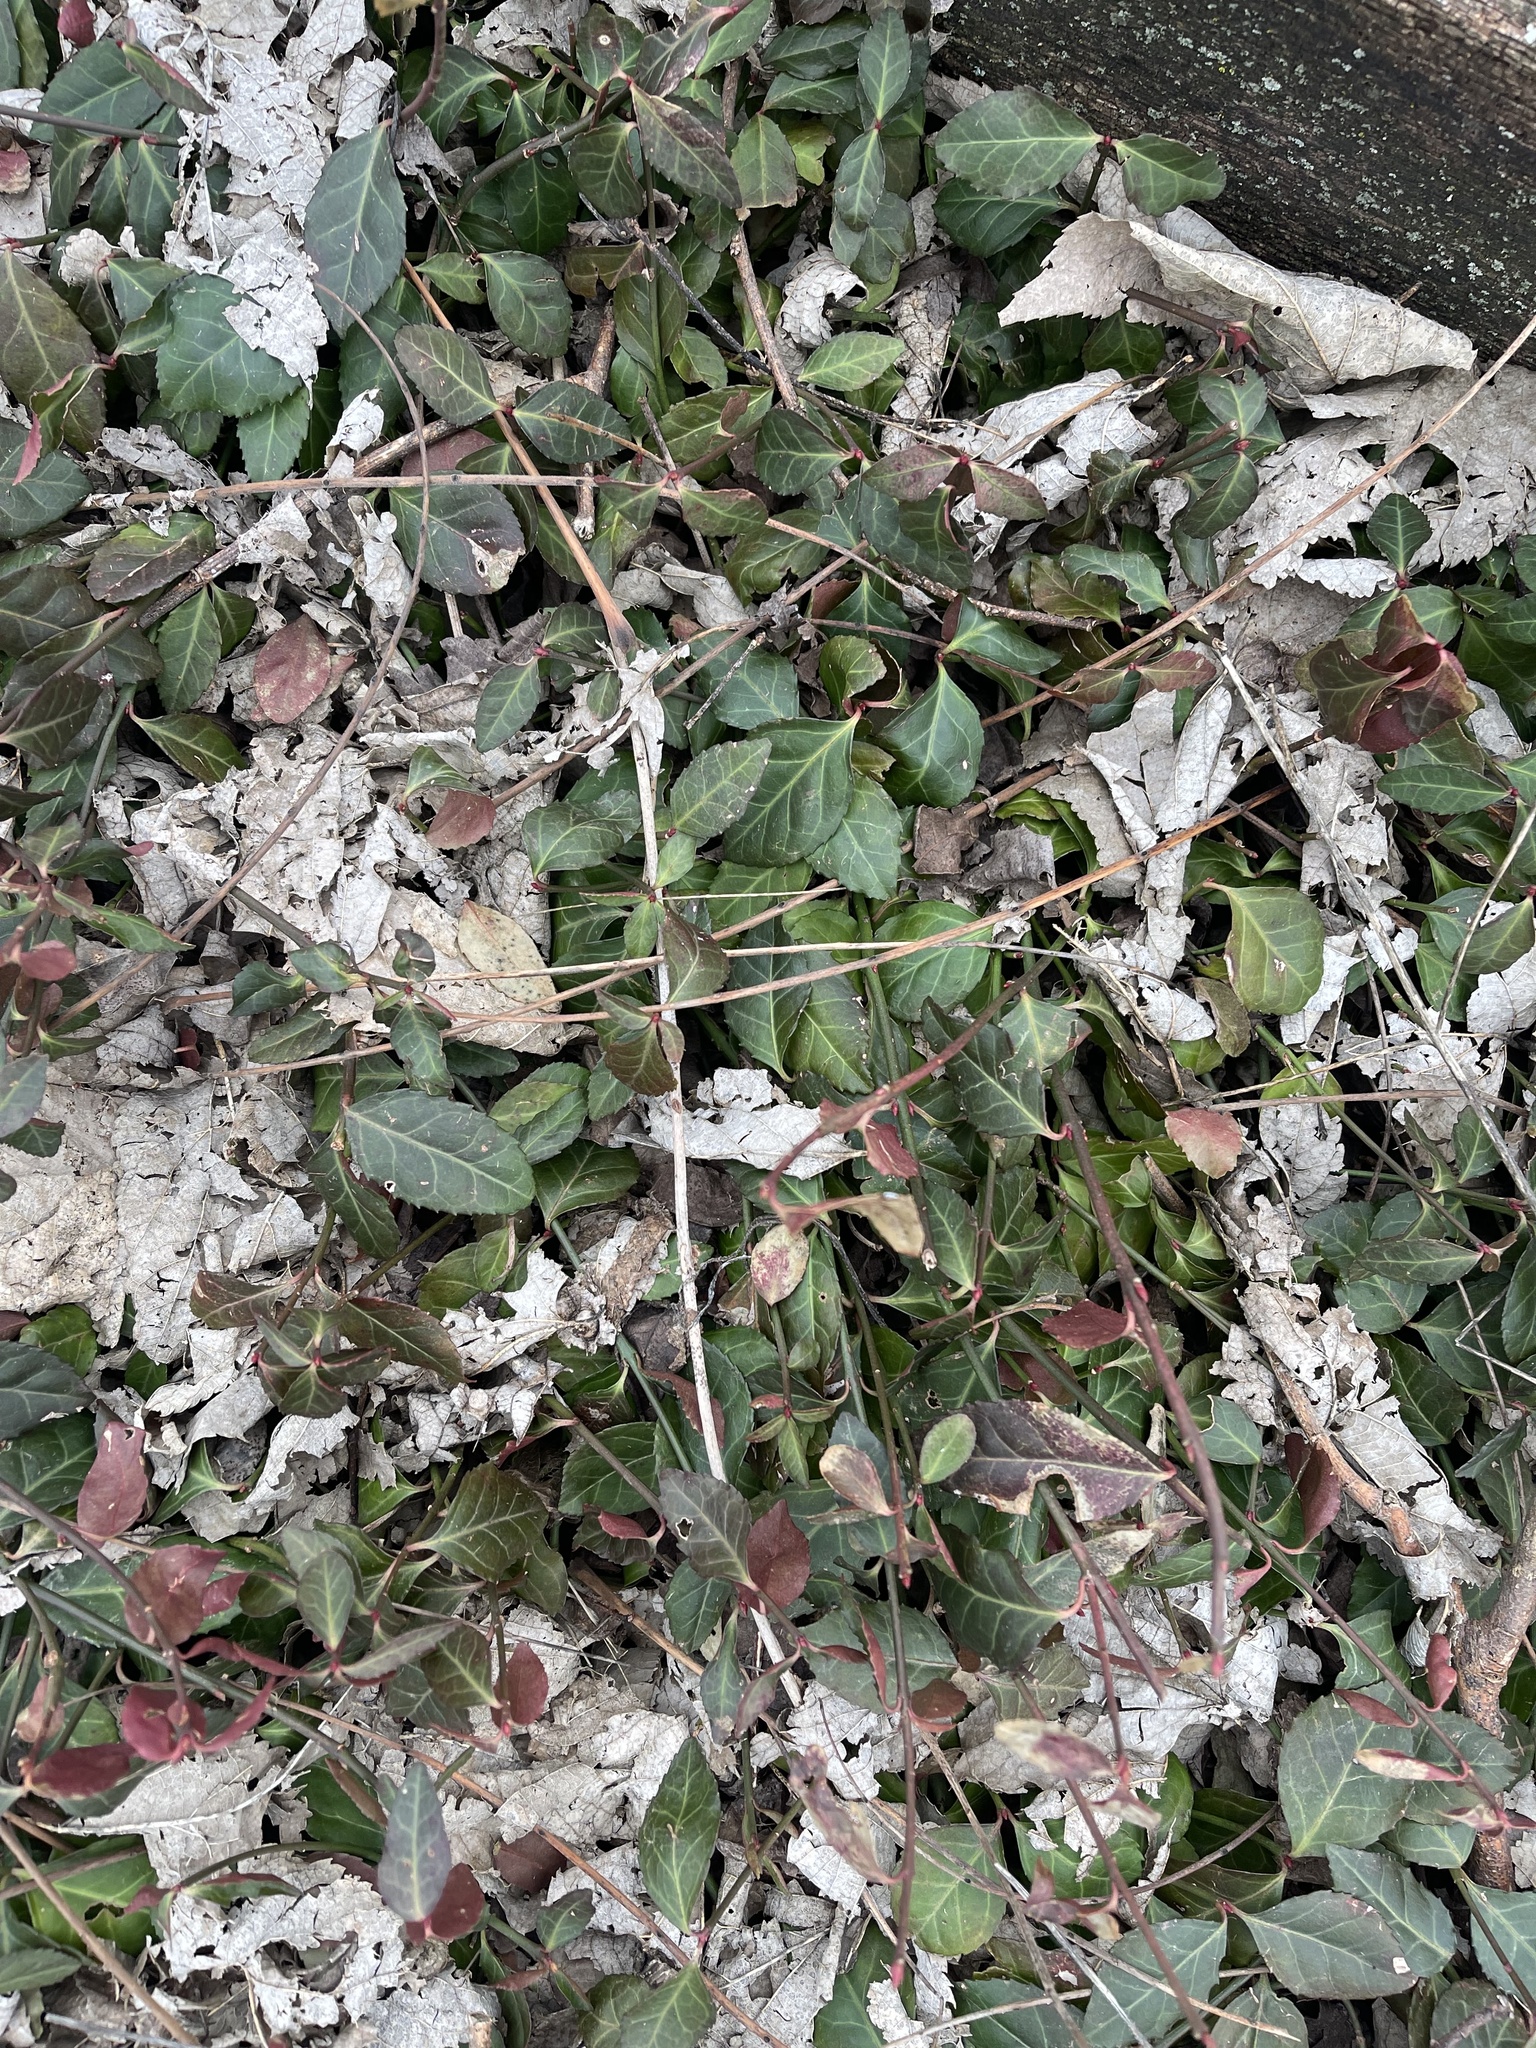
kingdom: Plantae
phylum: Tracheophyta
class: Magnoliopsida
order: Celastrales
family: Celastraceae
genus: Euonymus
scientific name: Euonymus fortunei
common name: Climbing euonymus
